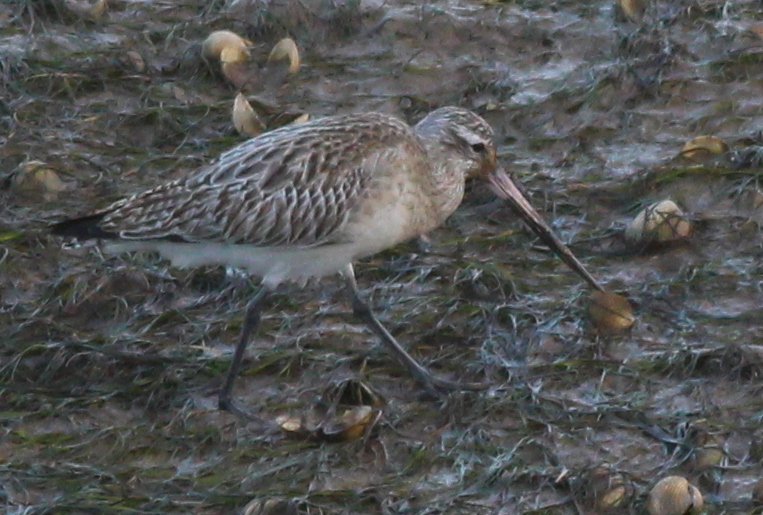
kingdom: Animalia
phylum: Chordata
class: Aves
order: Charadriiformes
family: Scolopacidae
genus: Limosa
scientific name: Limosa lapponica
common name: Bar-tailed godwit
